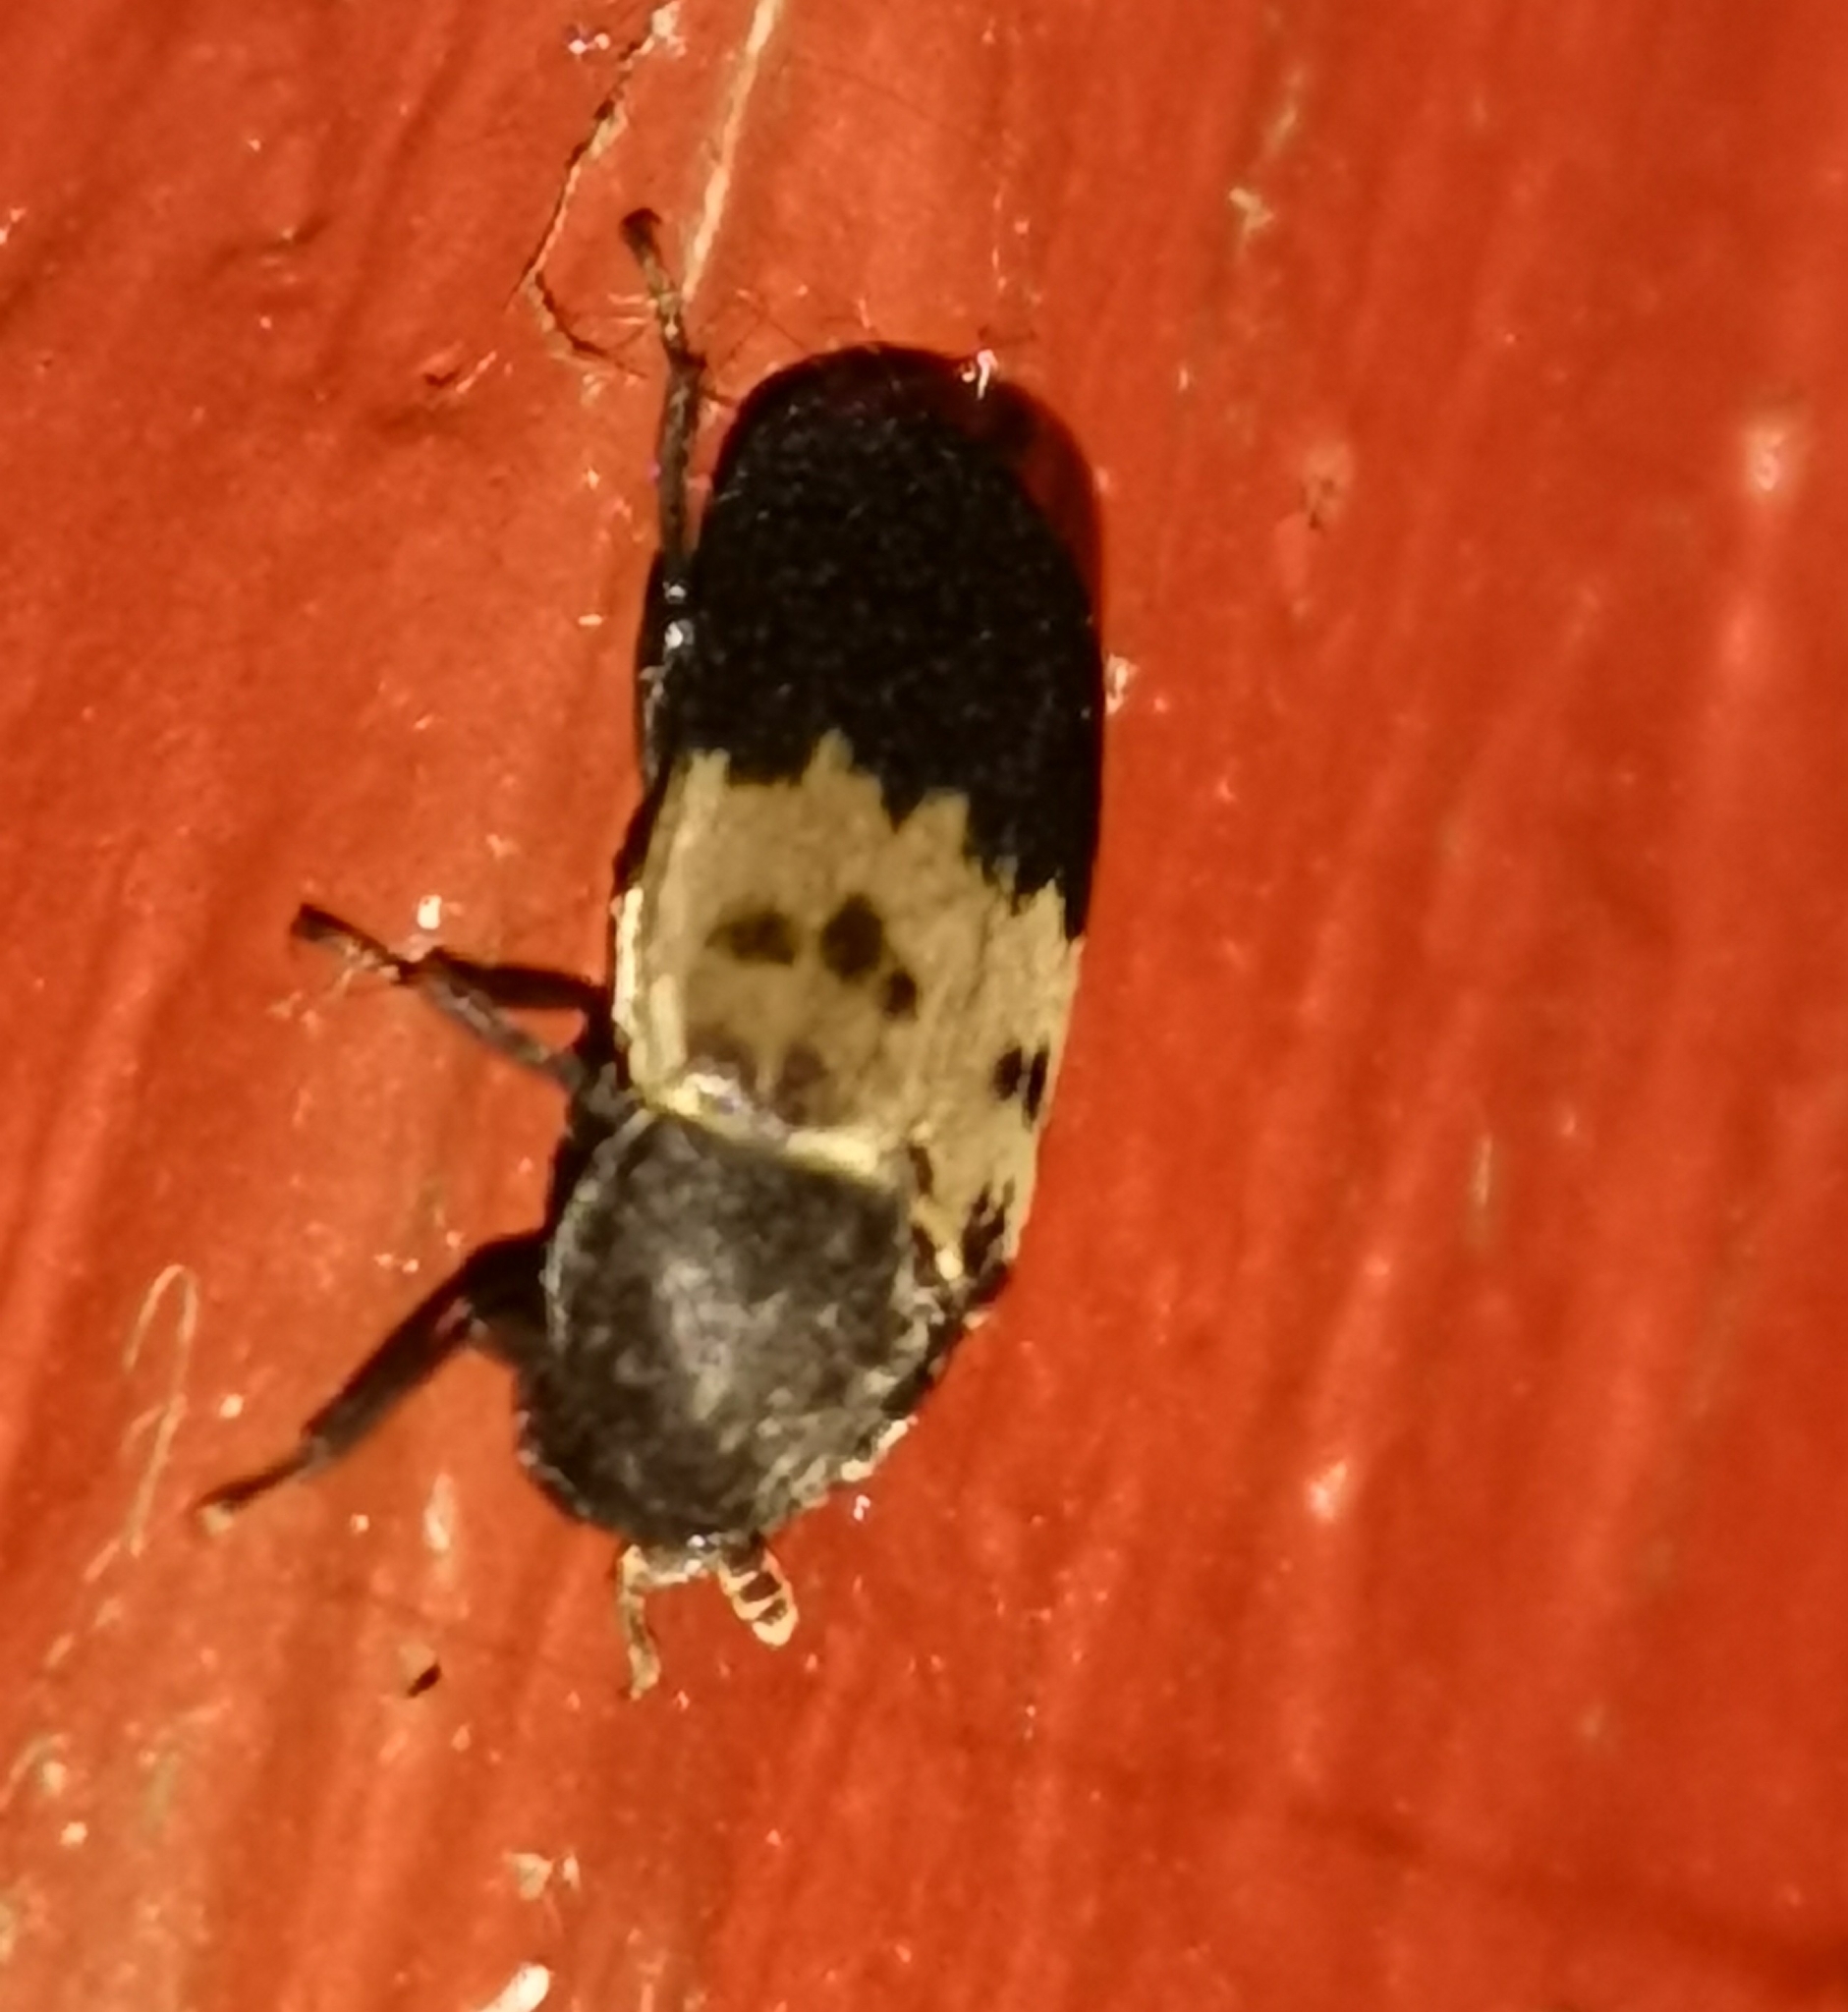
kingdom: Animalia
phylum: Arthropoda
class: Insecta
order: Coleoptera
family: Dermestidae
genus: Dermestes
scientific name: Dermestes lardarius
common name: Larder beetle
